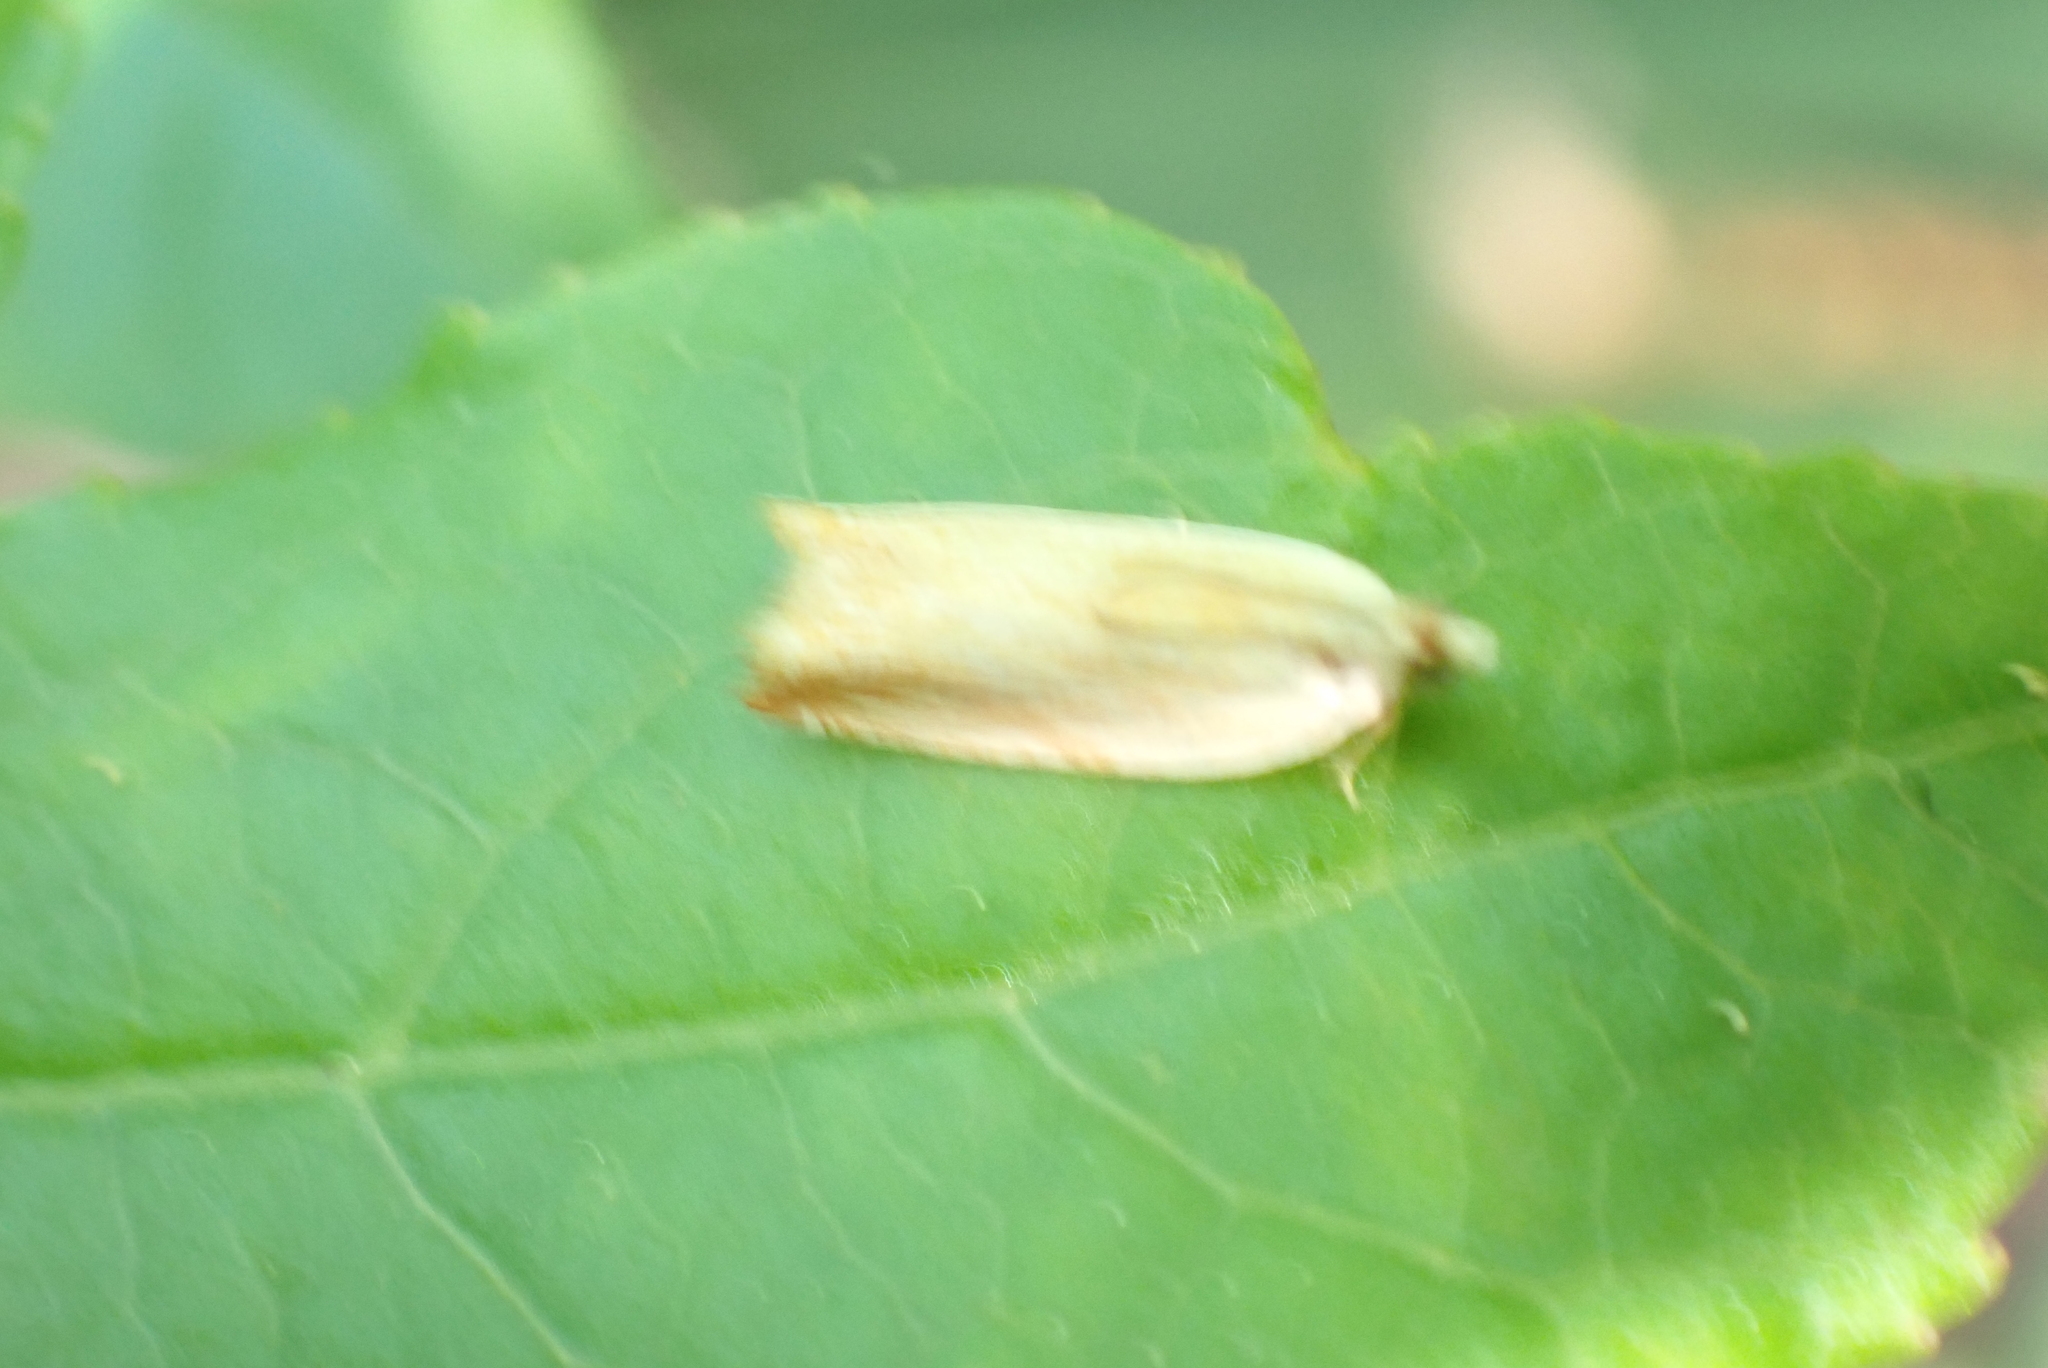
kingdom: Animalia
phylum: Arthropoda
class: Insecta
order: Lepidoptera
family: Tortricidae
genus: Ancylis
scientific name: Ancylis platanana
